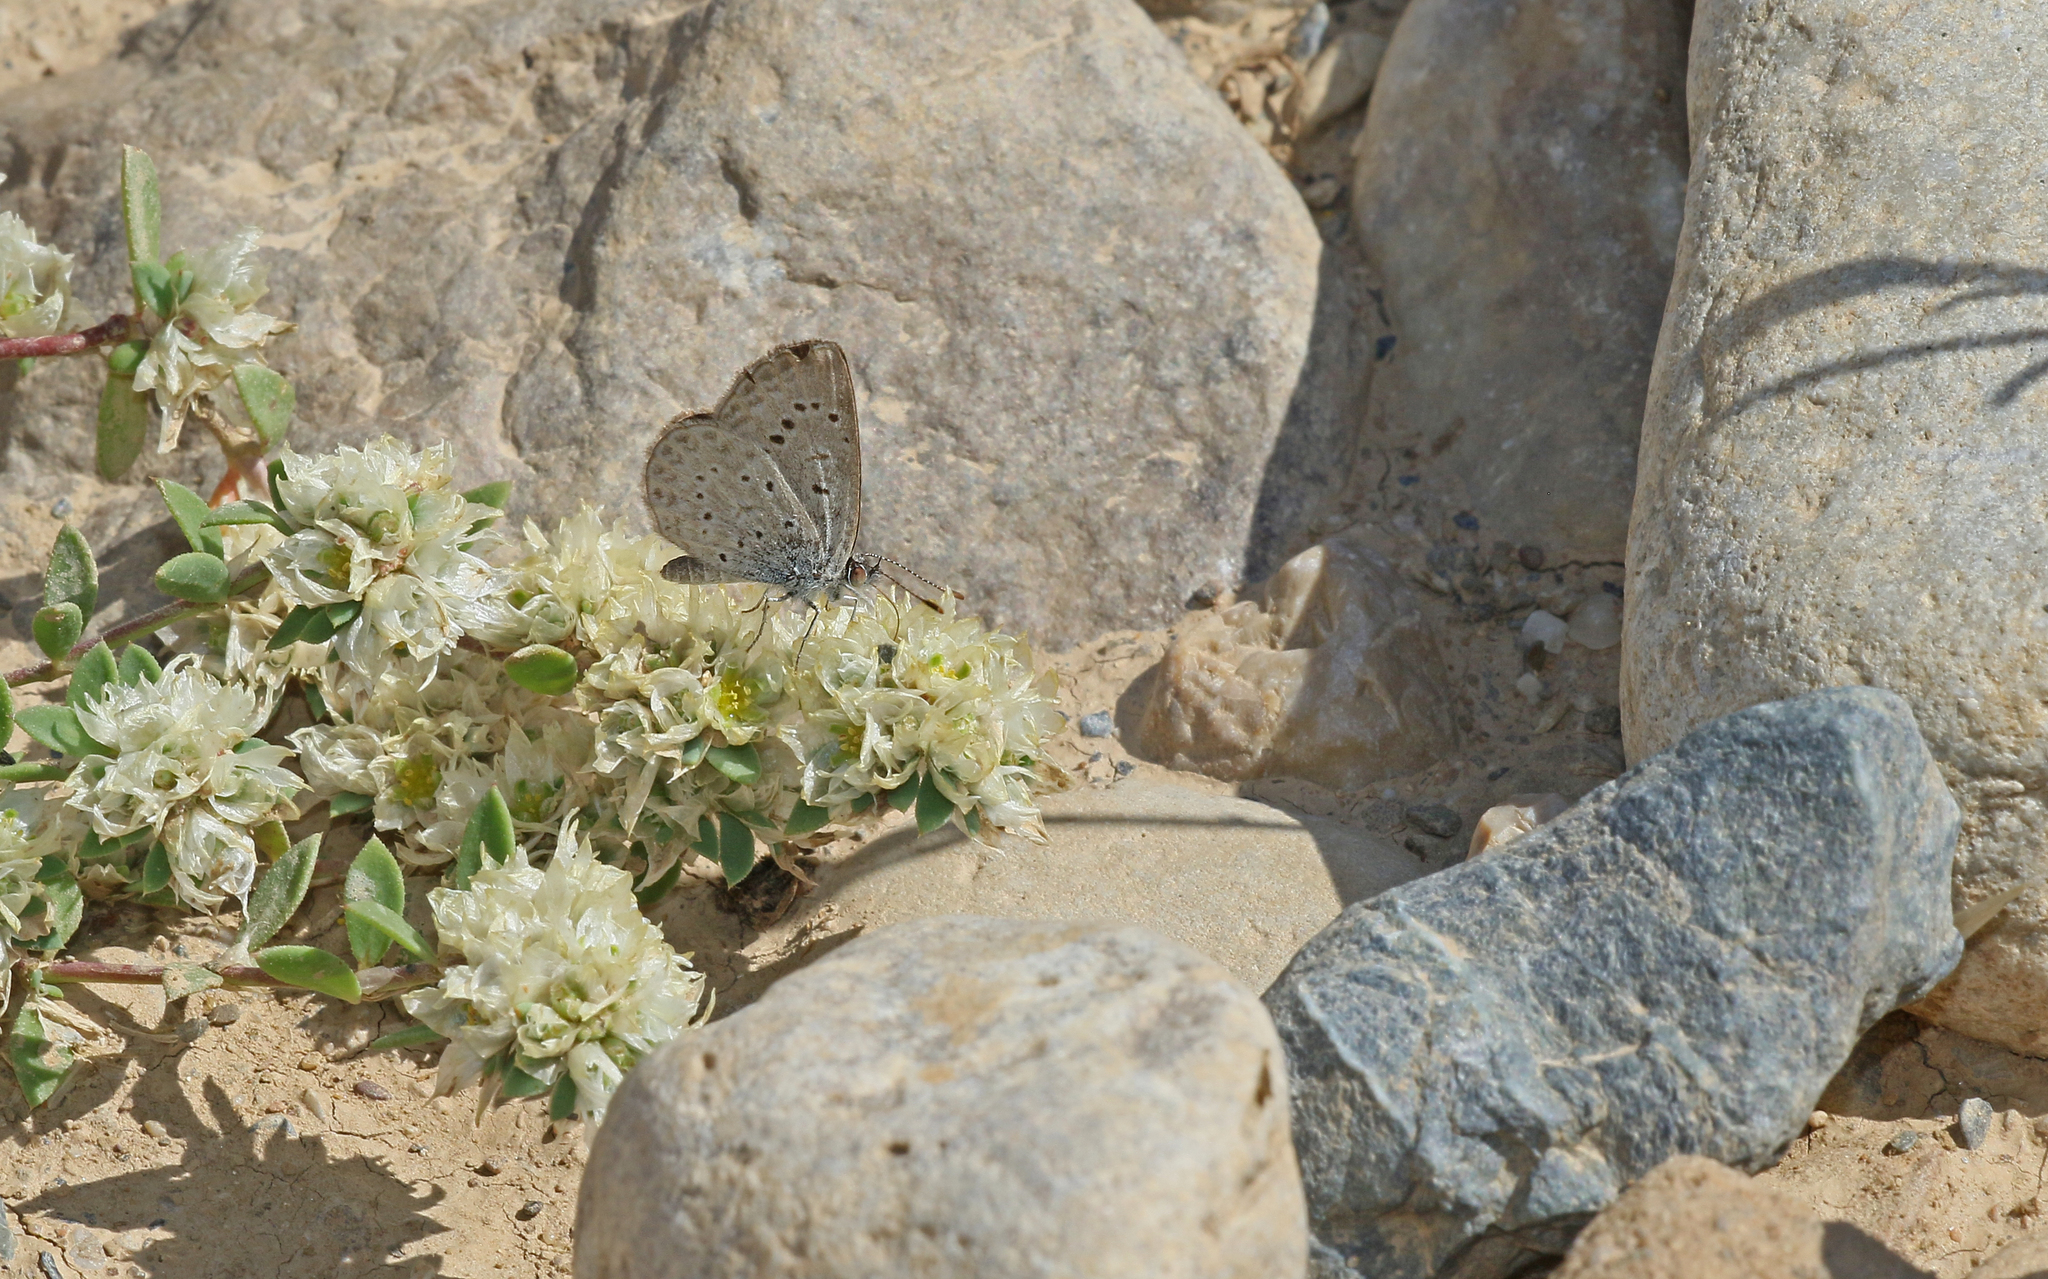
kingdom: Animalia
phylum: Arthropoda
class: Insecta
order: Lepidoptera
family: Lycaenidae
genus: Zizeeria
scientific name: Zizeeria knysna
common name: African grass blue
